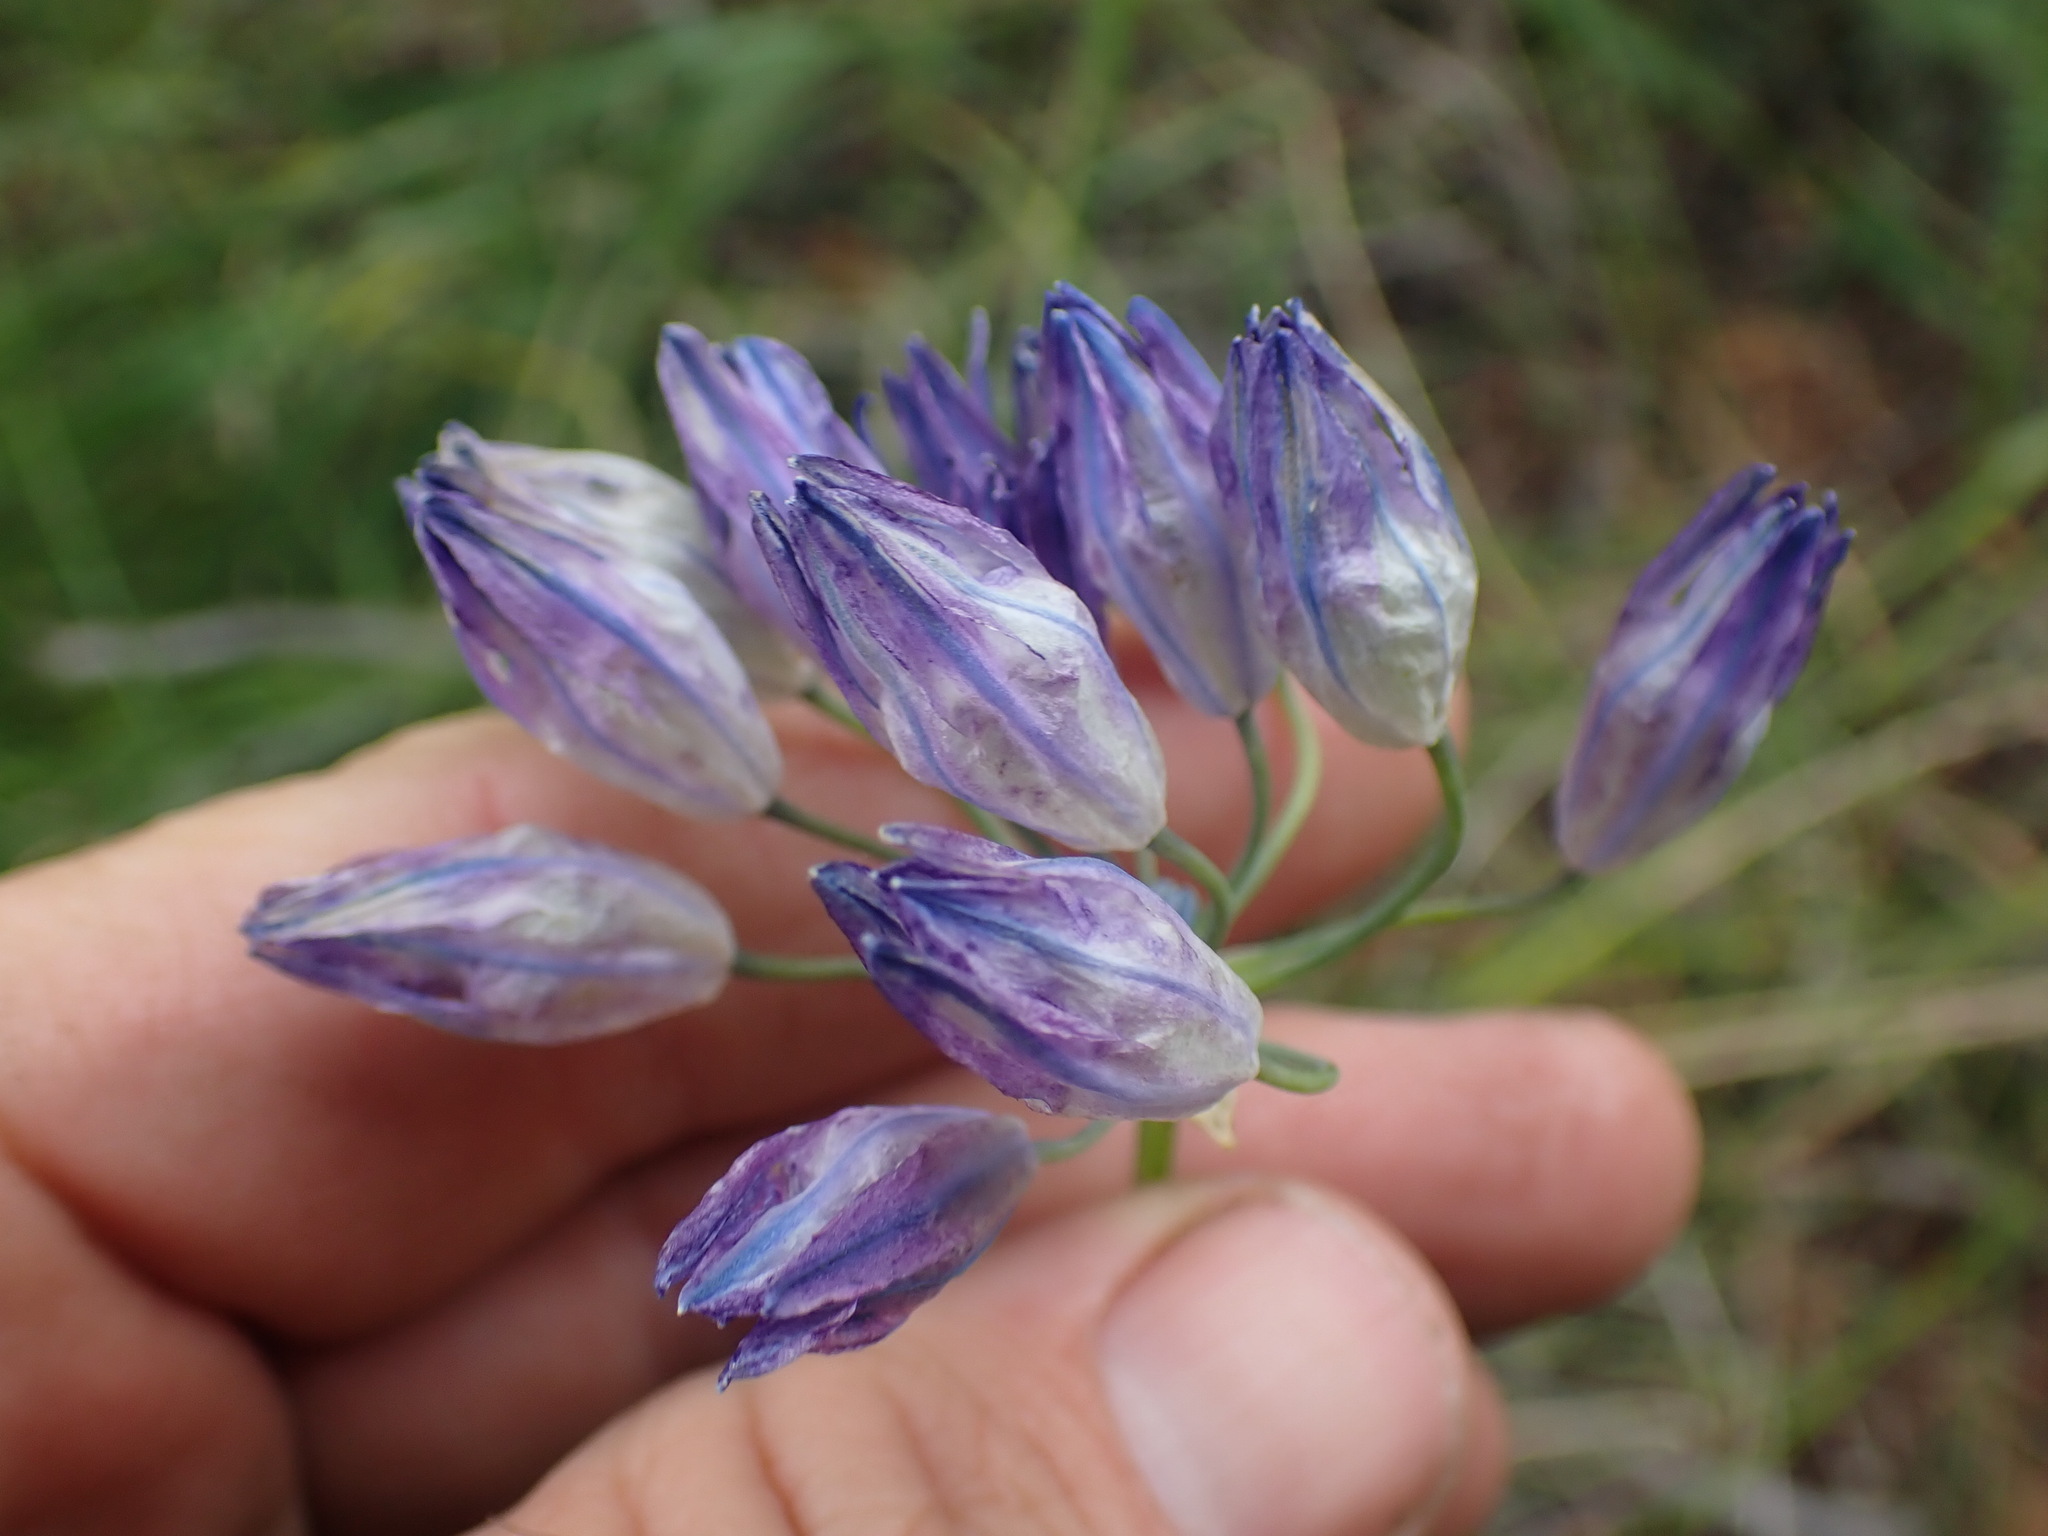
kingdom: Plantae
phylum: Tracheophyta
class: Liliopsida
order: Asparagales
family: Asparagaceae
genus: Triteleia
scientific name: Triteleia grandiflora
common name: Wild hyacinth
